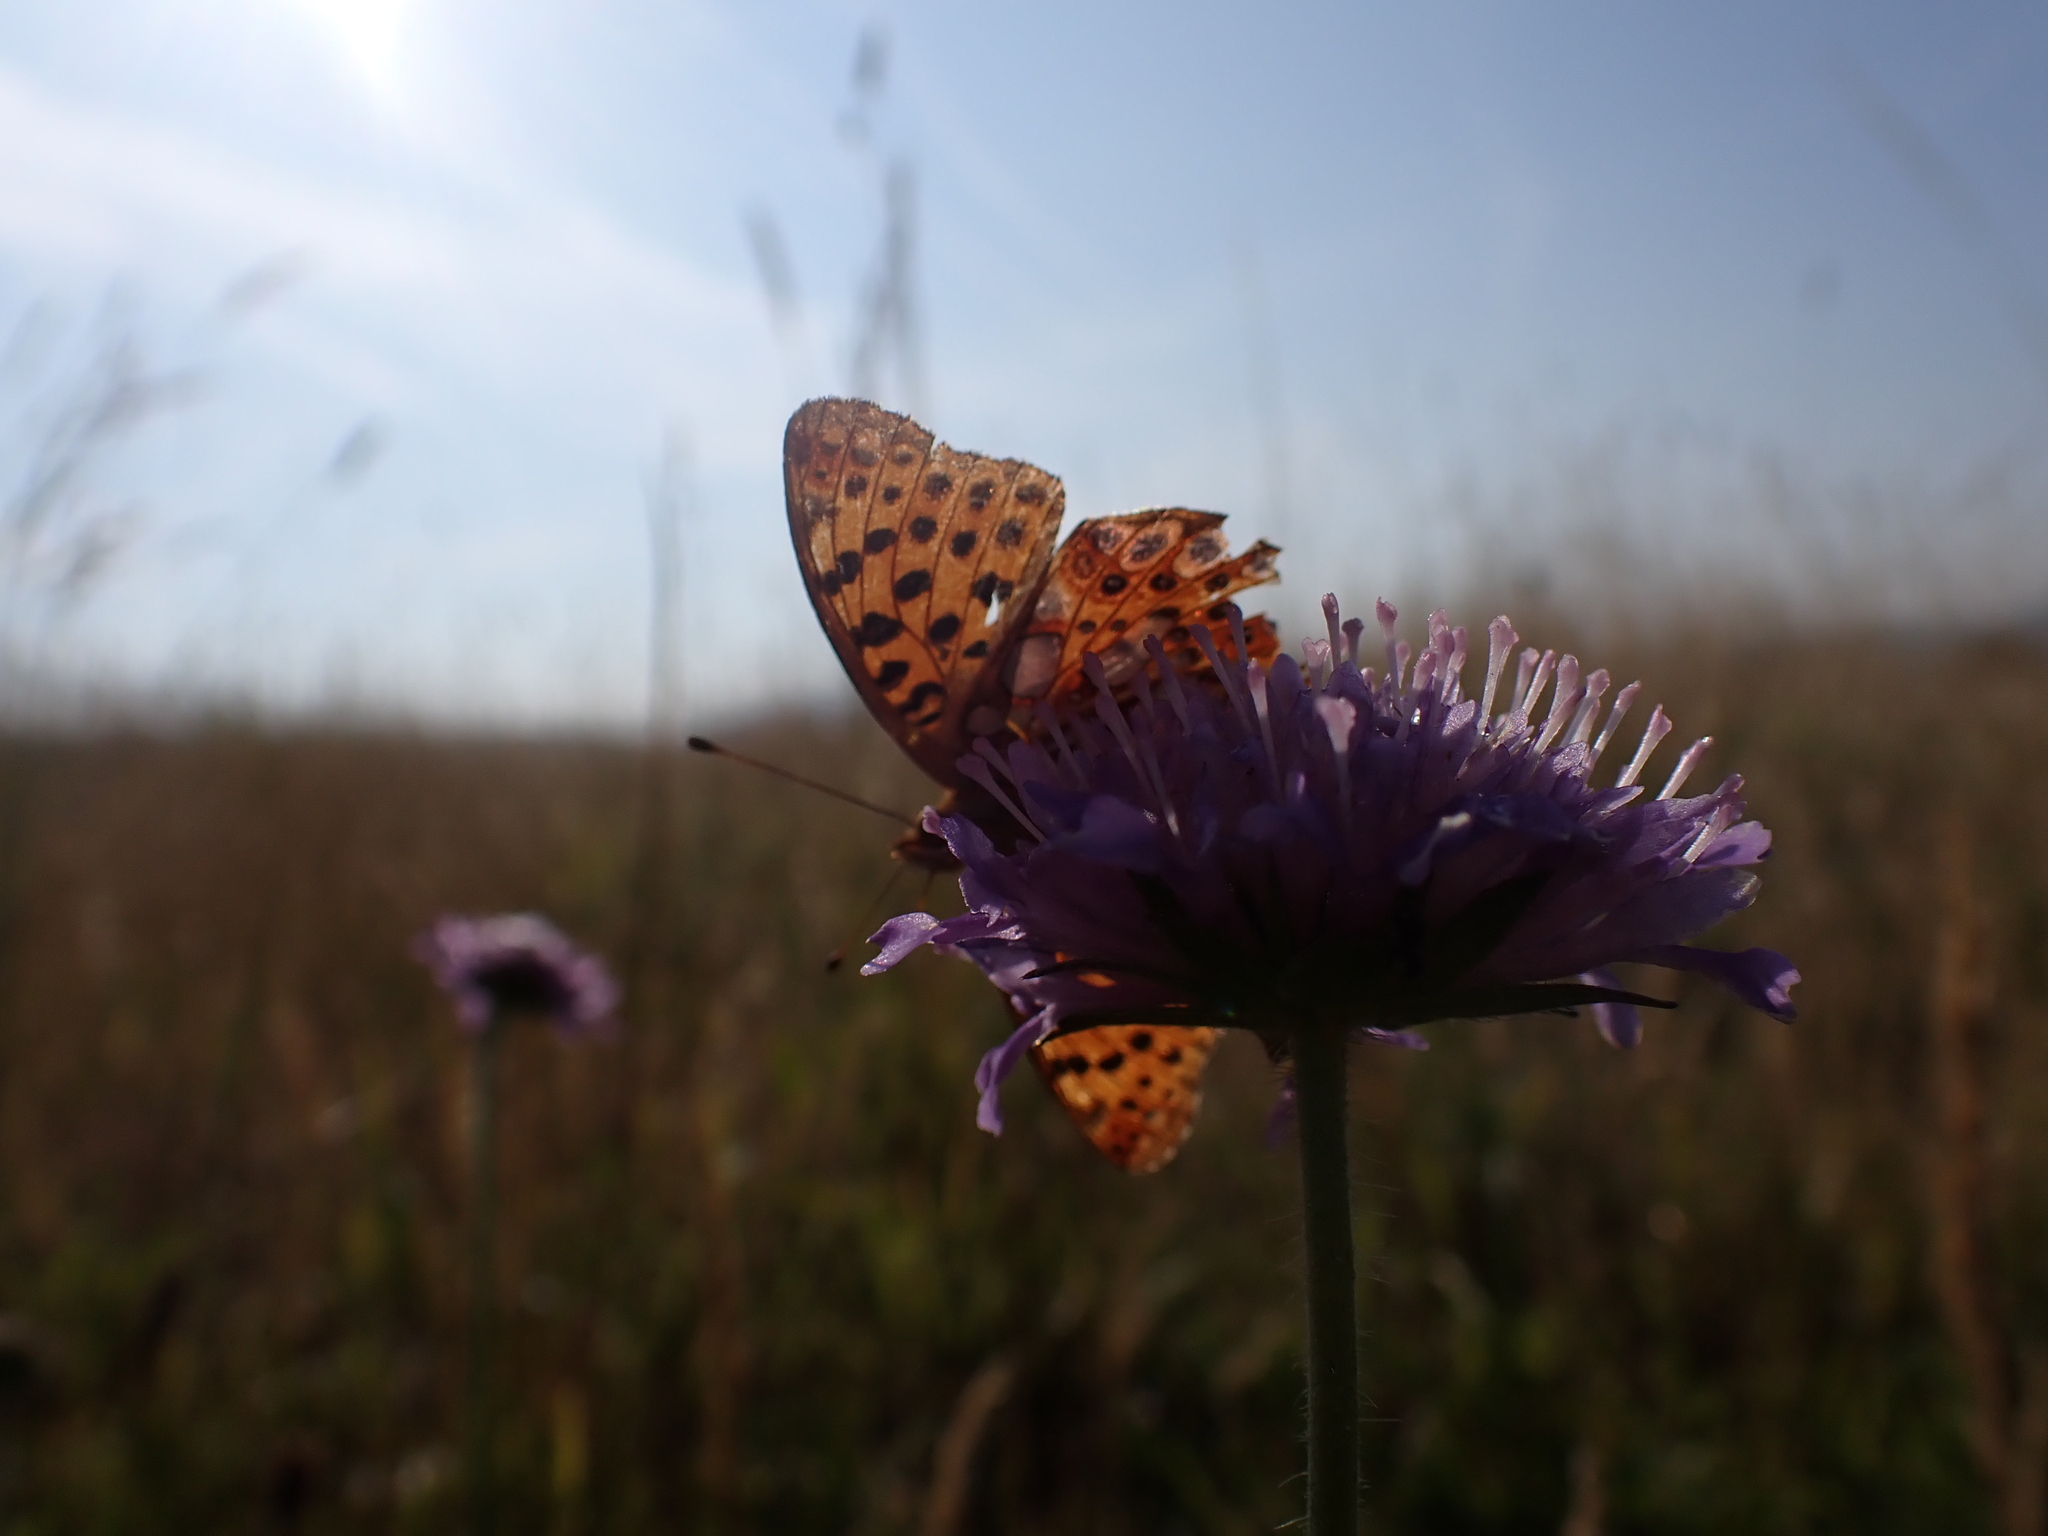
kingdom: Animalia
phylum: Arthropoda
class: Insecta
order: Lepidoptera
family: Nymphalidae
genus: Issoria
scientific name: Issoria lathonia
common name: Queen of spain fritillary
